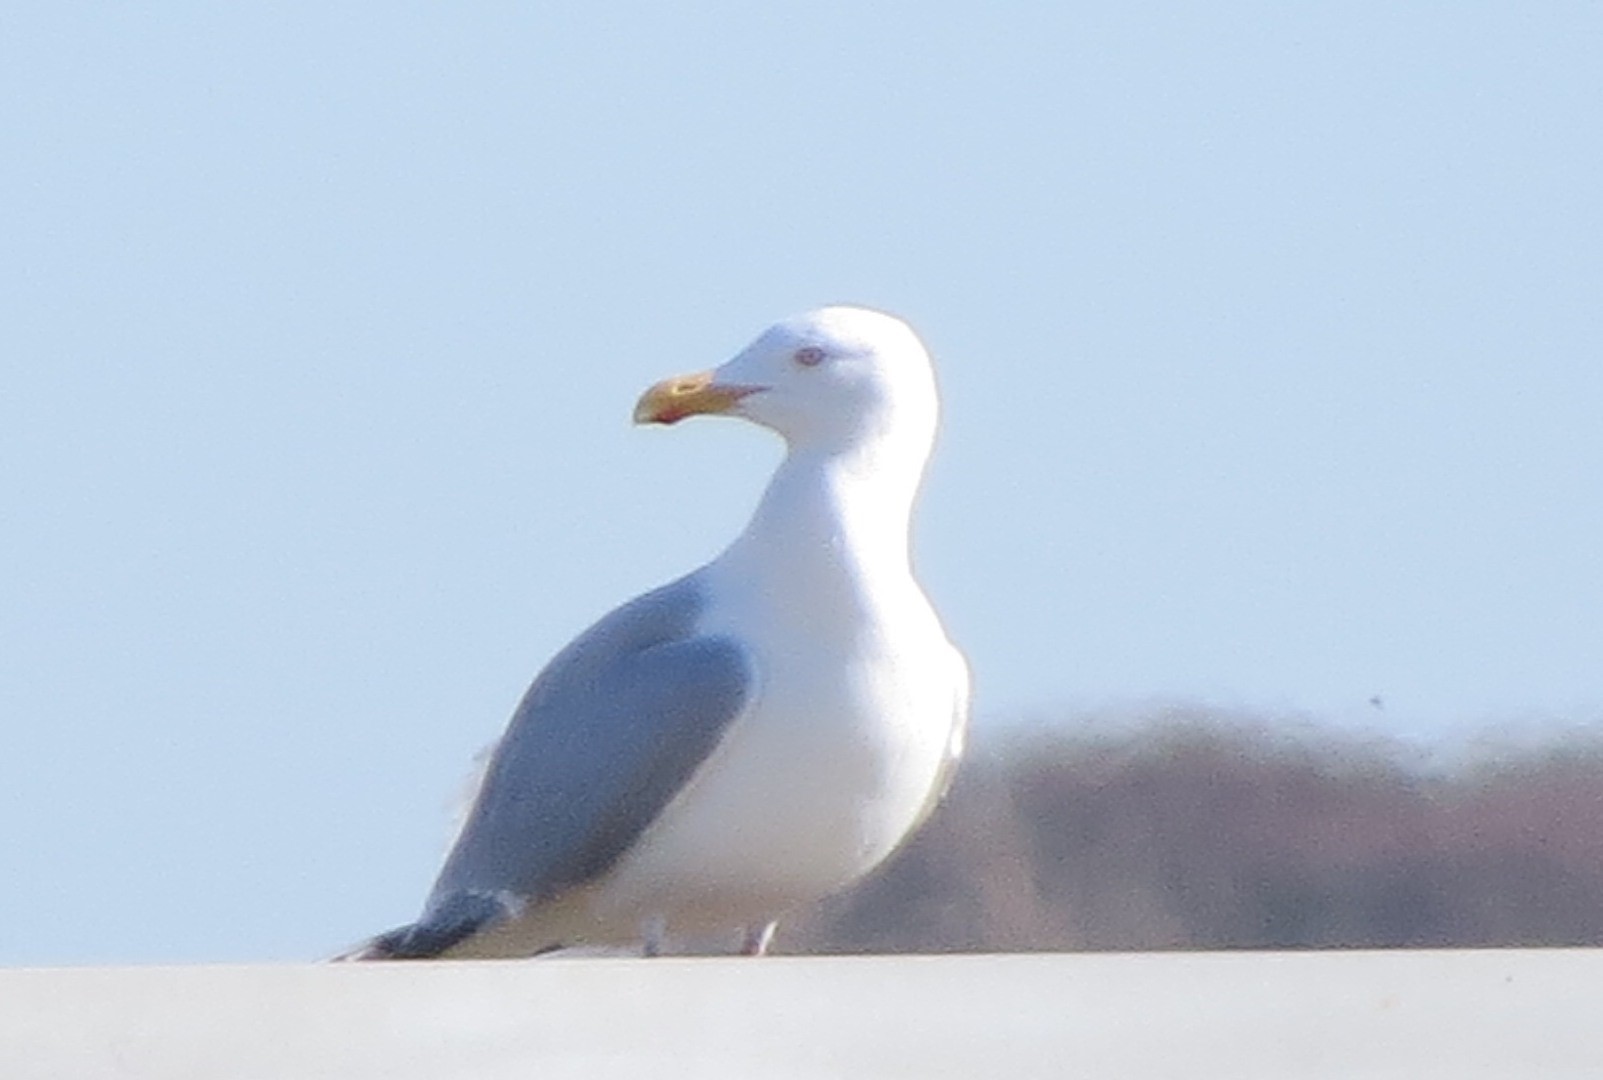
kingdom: Animalia
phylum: Chordata
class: Aves
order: Charadriiformes
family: Laridae
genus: Larus
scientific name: Larus argentatus
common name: Herring gull
